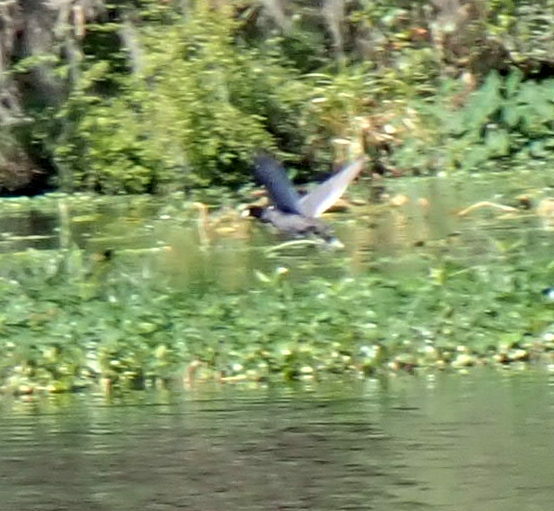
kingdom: Animalia
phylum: Chordata
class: Aves
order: Gruiformes
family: Rallidae
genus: Fulica
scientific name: Fulica americana
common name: American coot
